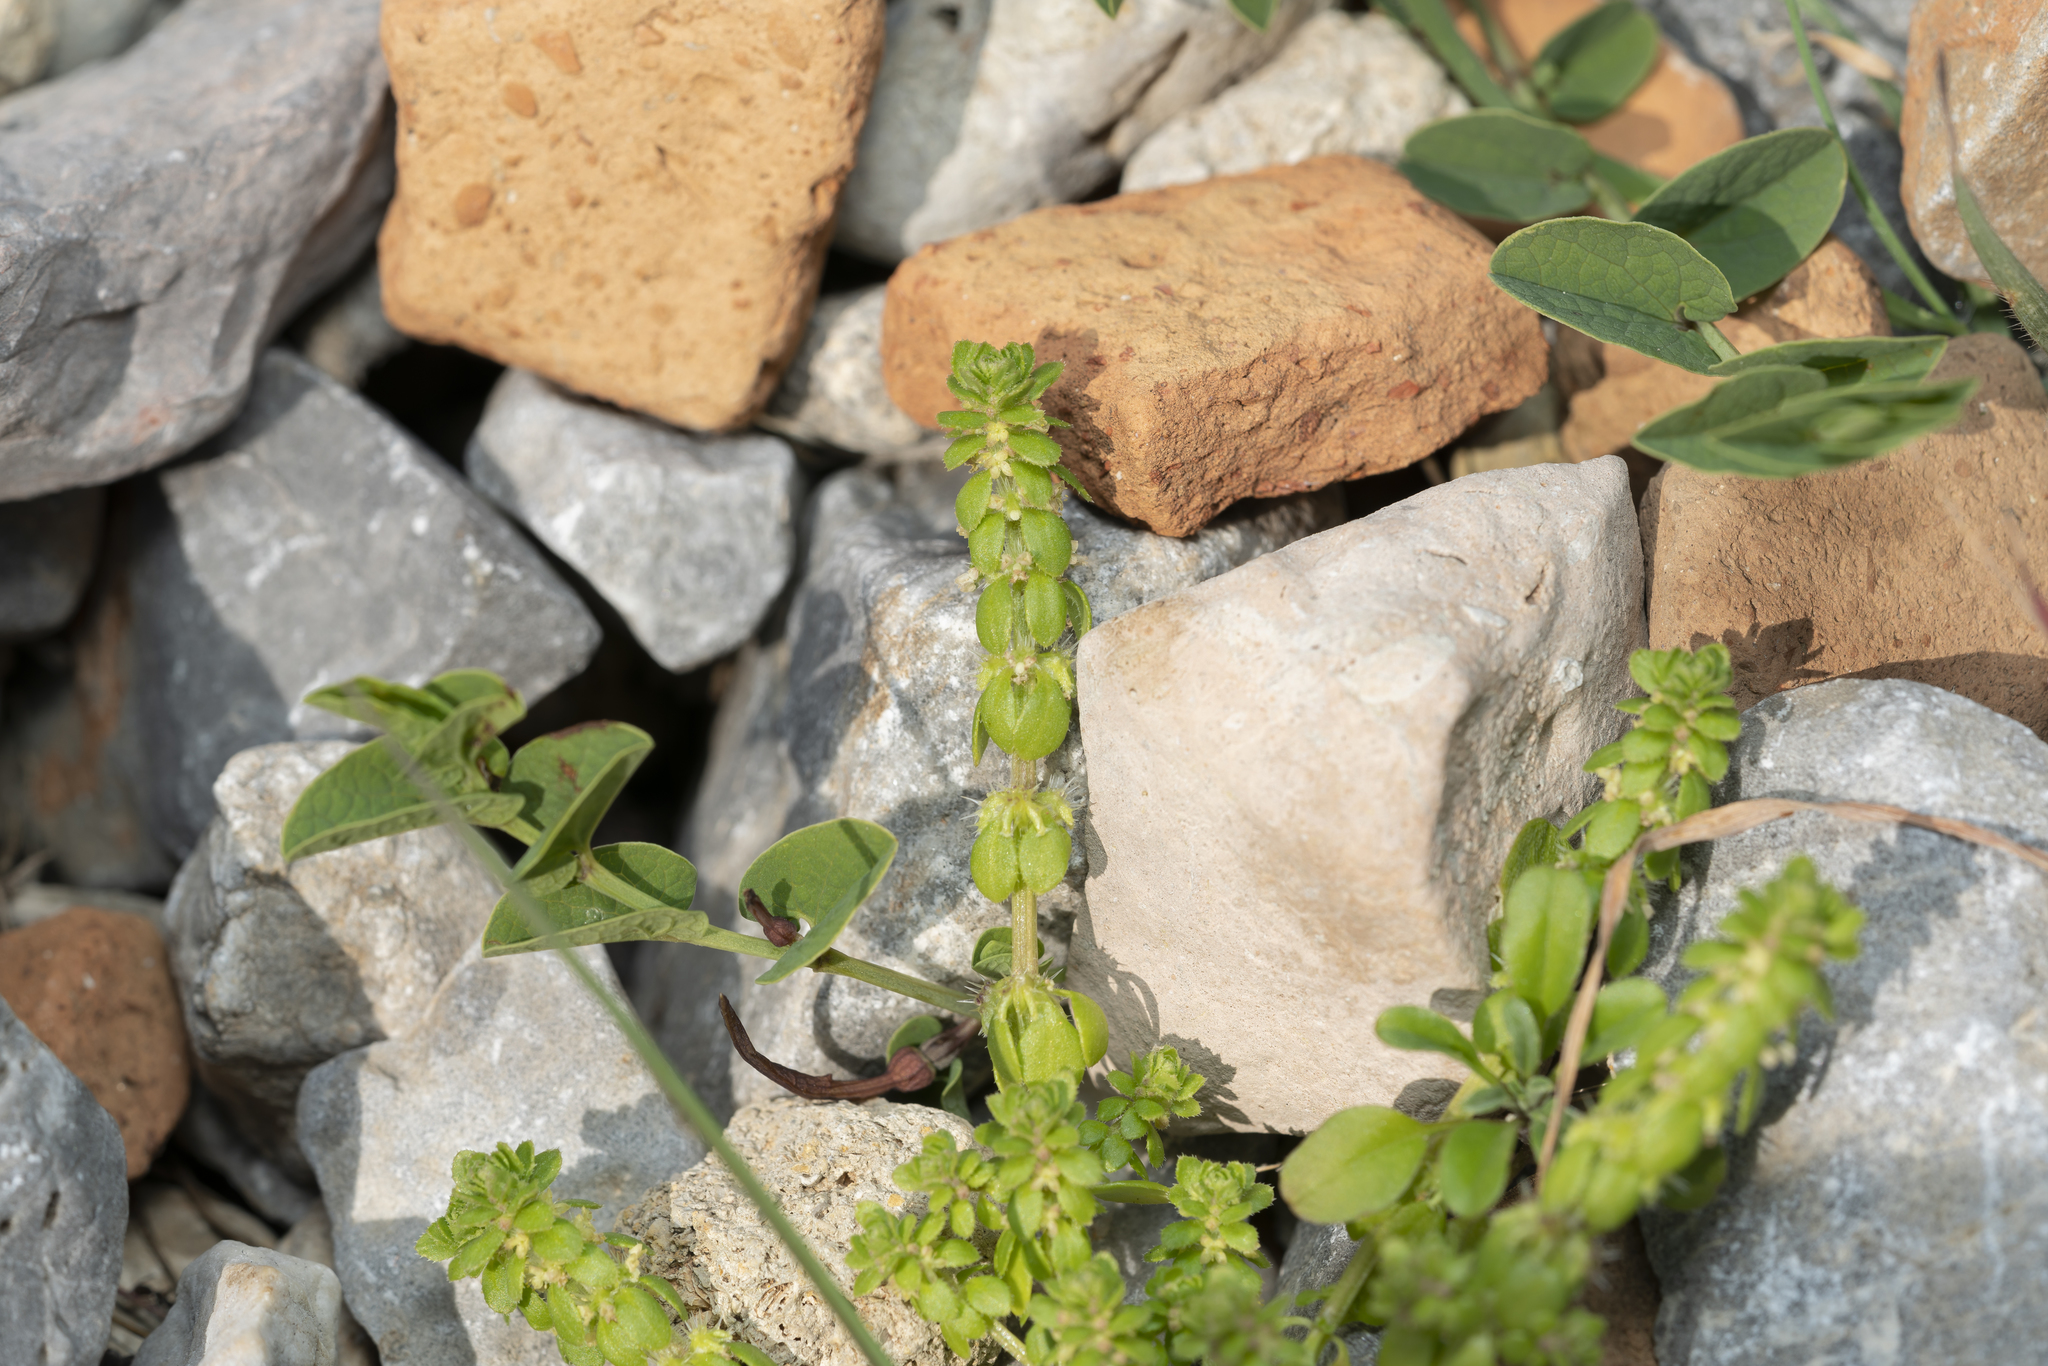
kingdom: Plantae
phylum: Tracheophyta
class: Magnoliopsida
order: Piperales
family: Aristolochiaceae
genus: Aristolochia
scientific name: Aristolochia parvifolia
